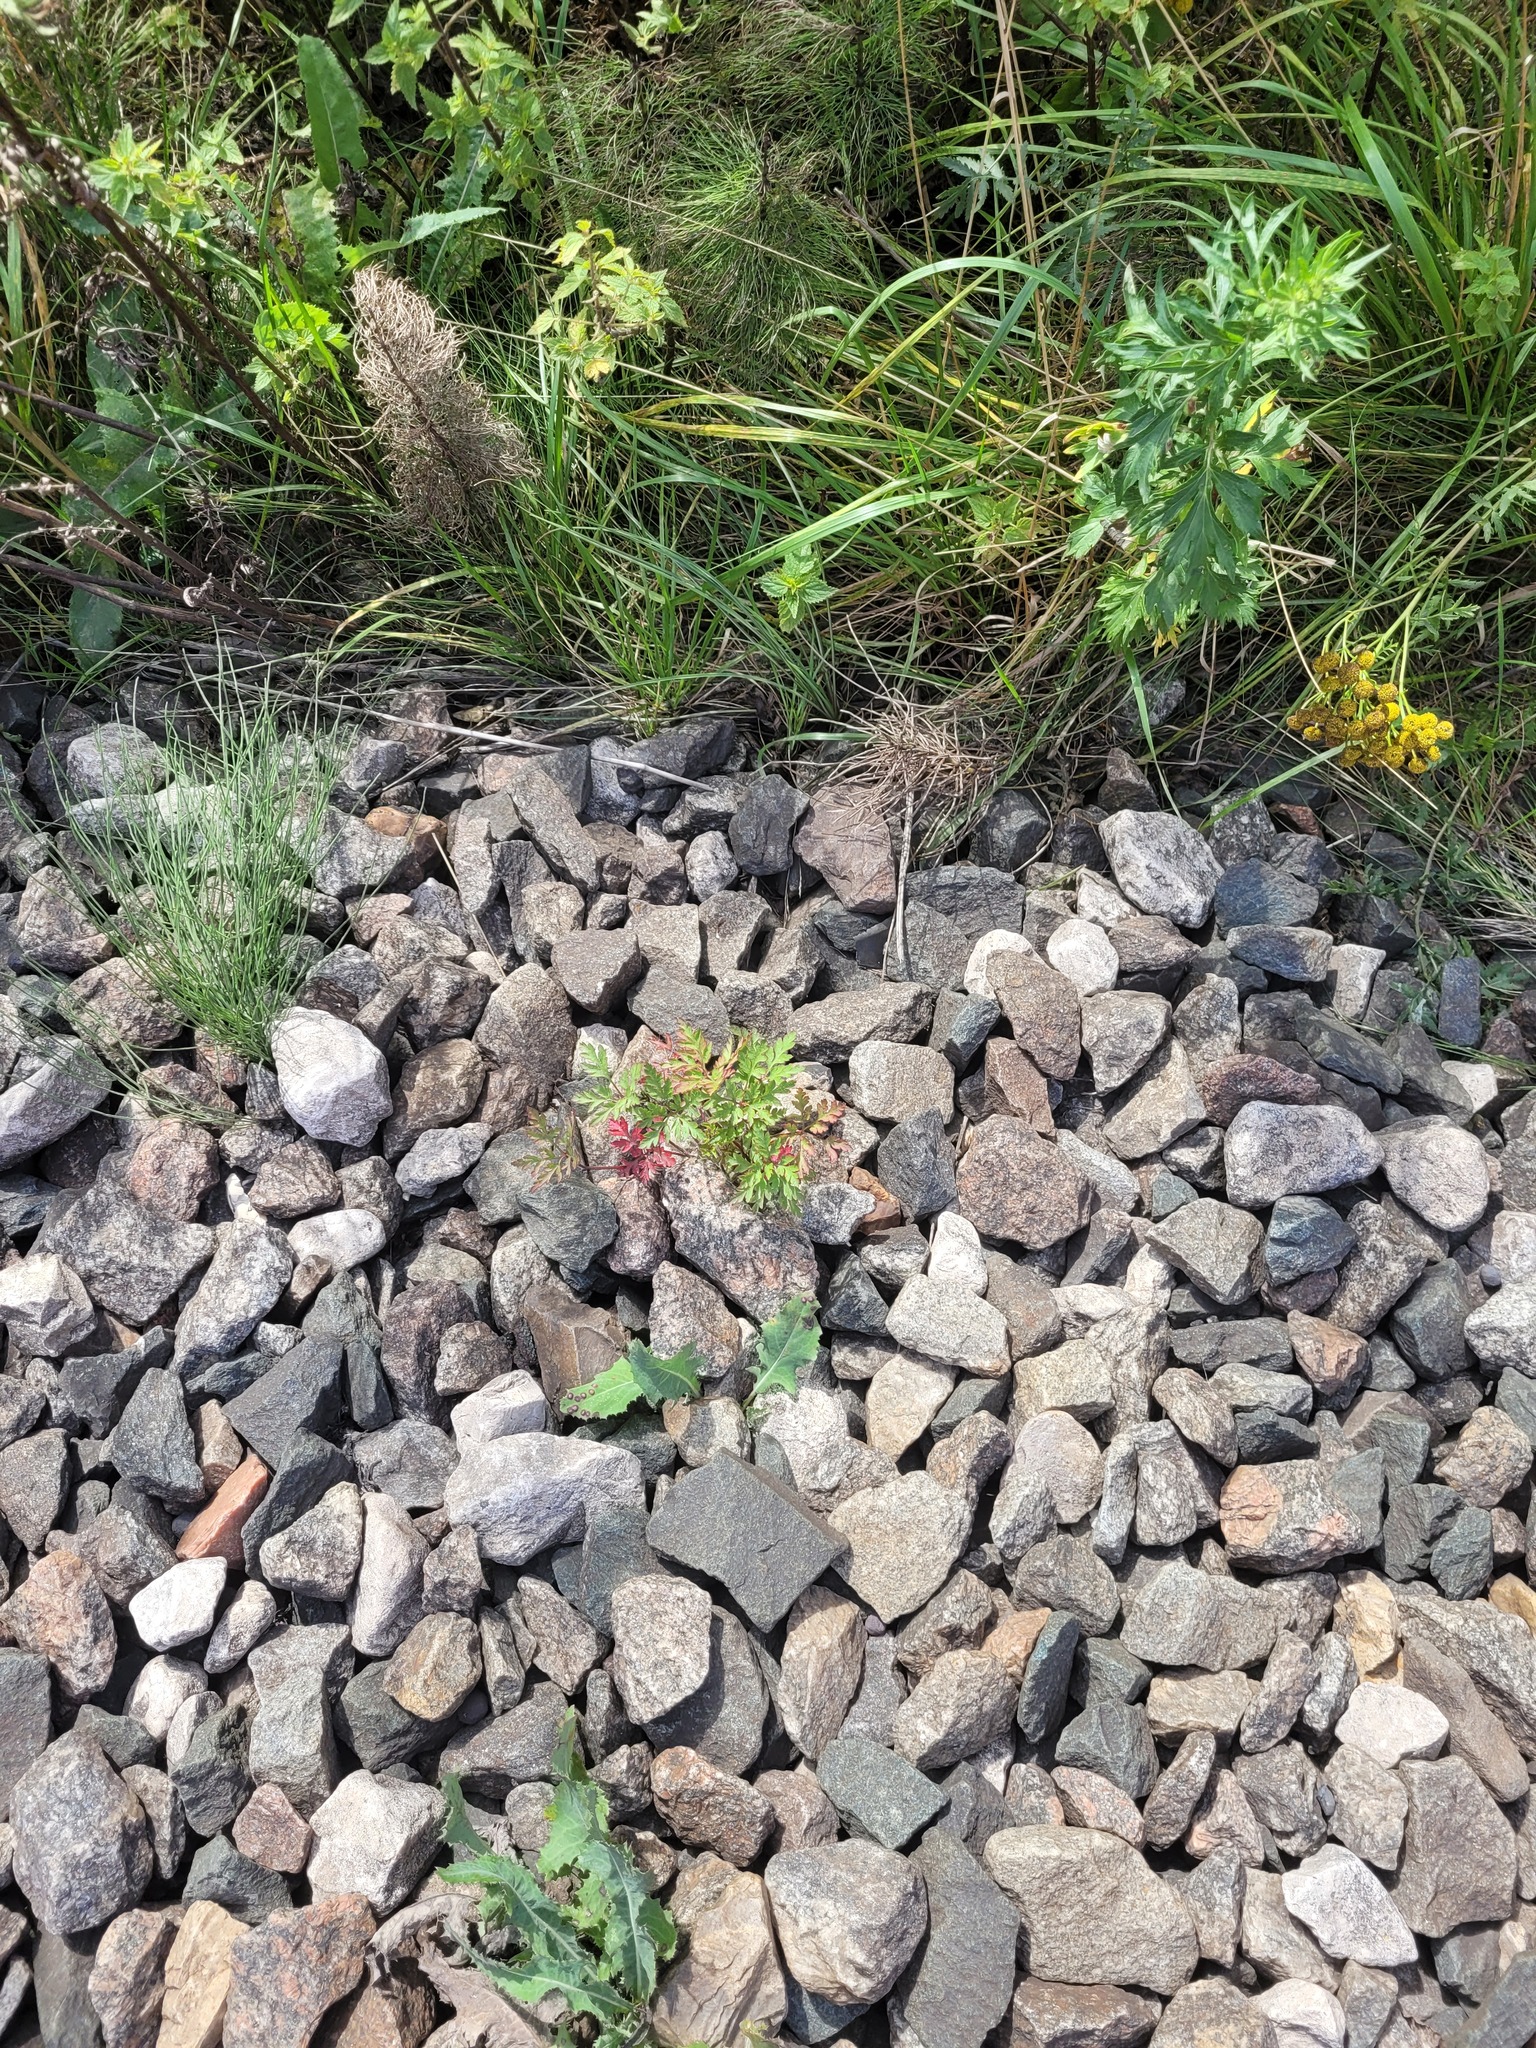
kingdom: Plantae
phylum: Tracheophyta
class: Magnoliopsida
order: Geraniales
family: Geraniaceae
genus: Geranium
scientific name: Geranium robertianum
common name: Herb-robert
